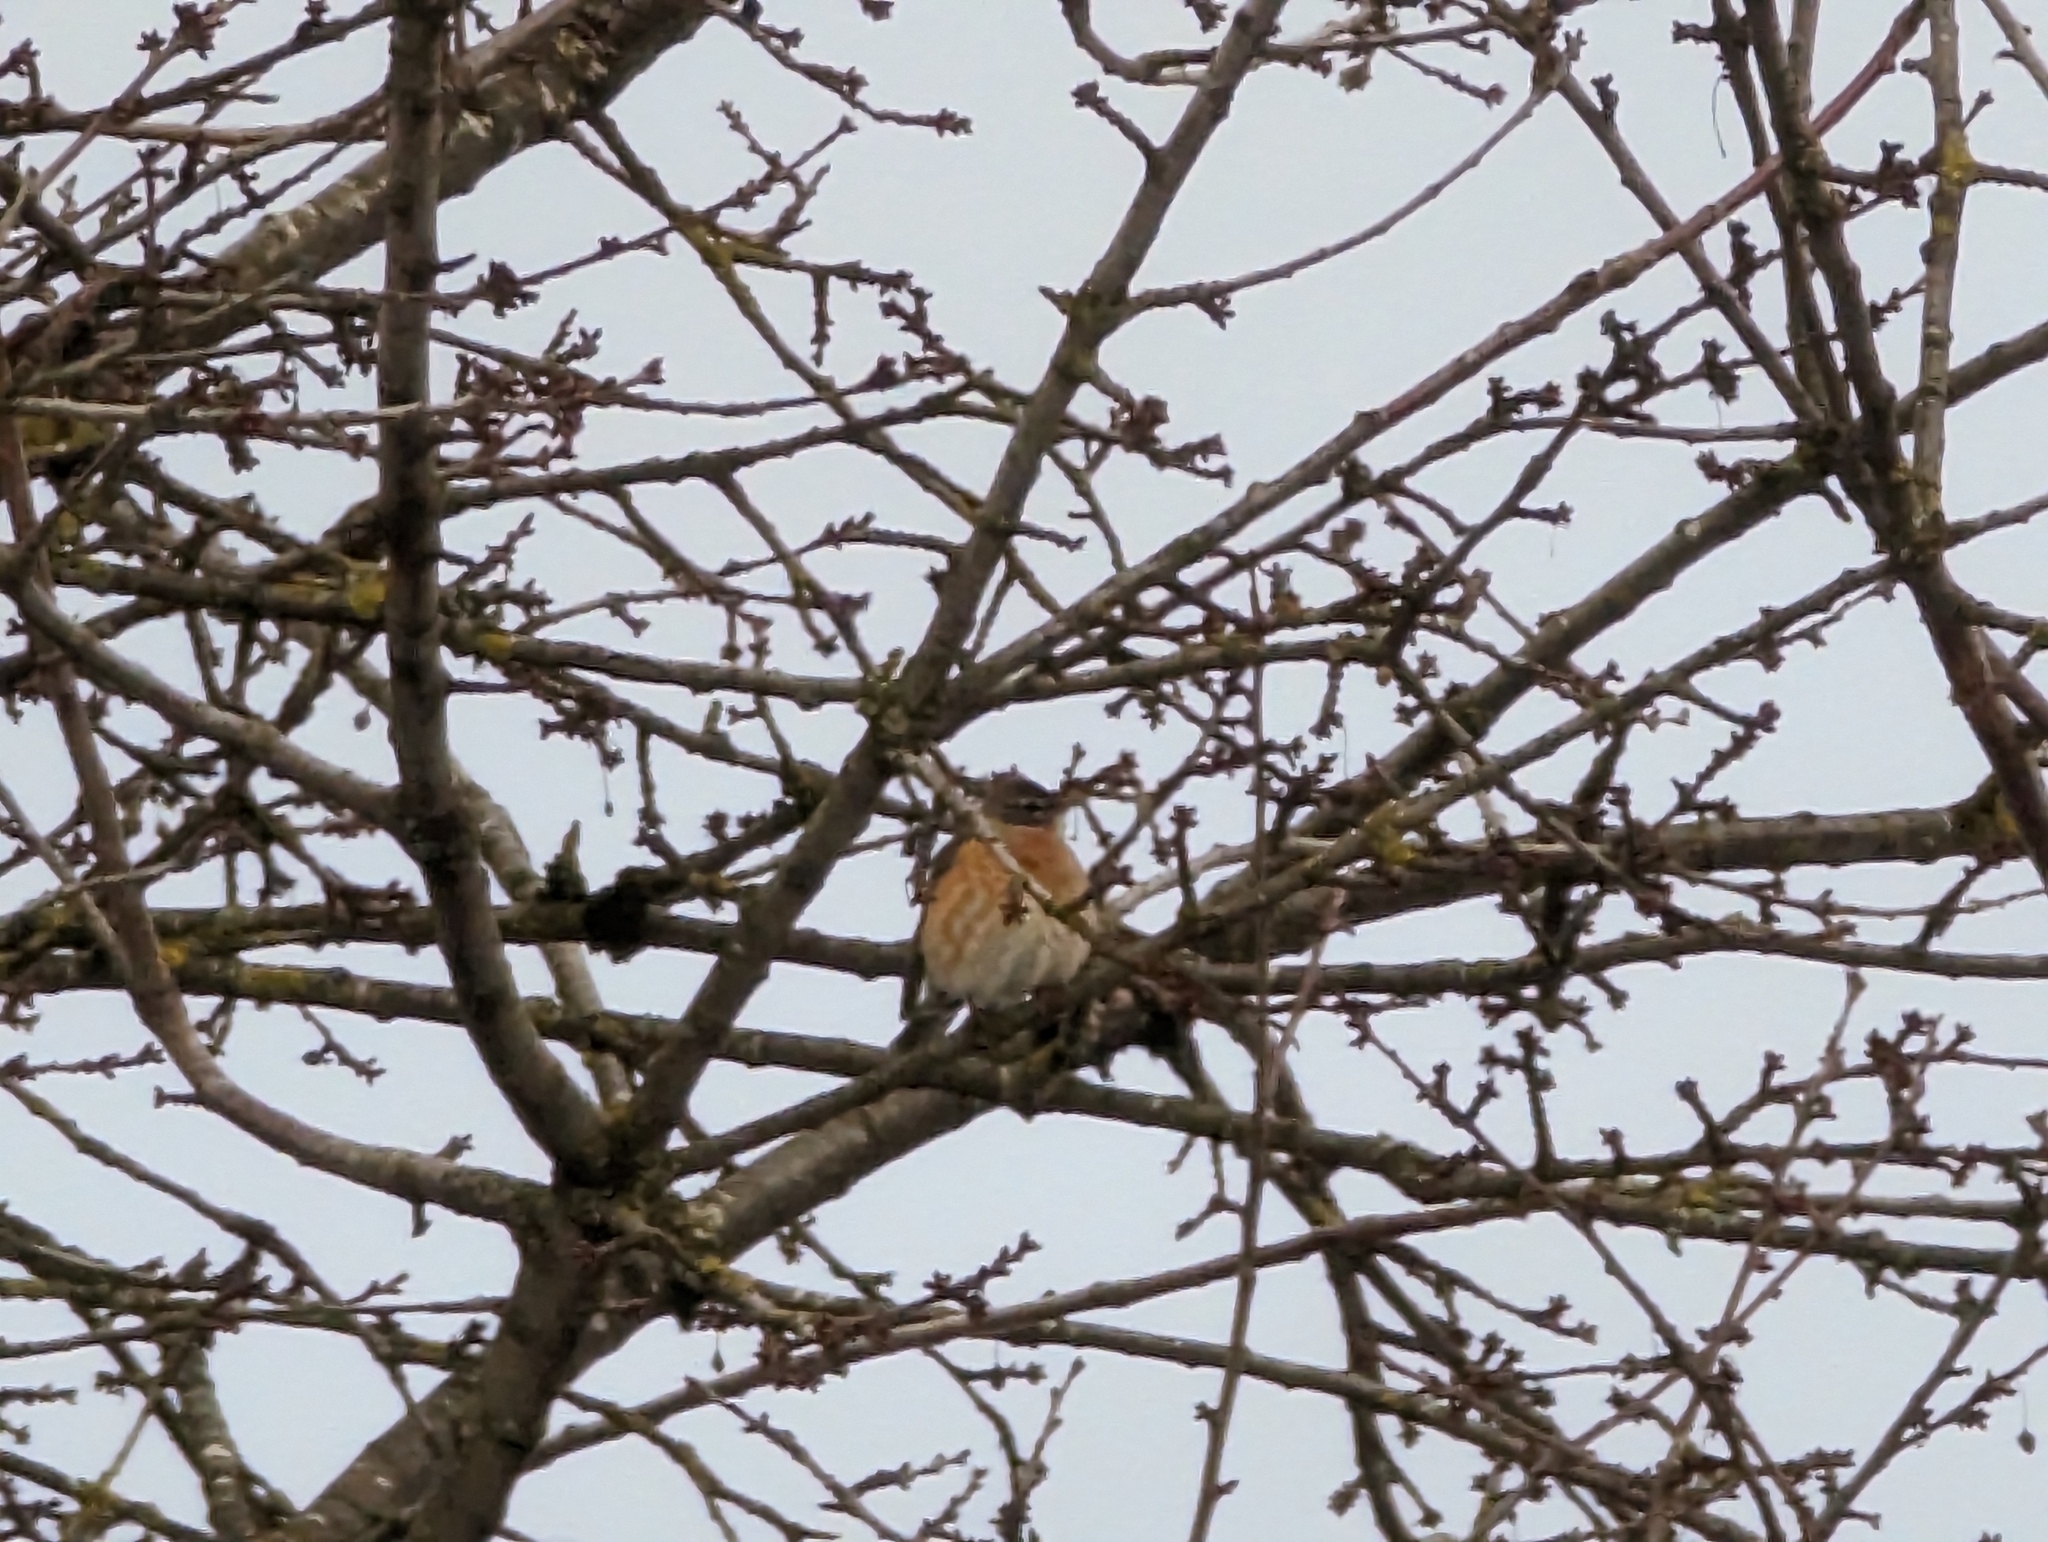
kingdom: Animalia
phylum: Chordata
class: Aves
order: Passeriformes
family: Turdidae
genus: Turdus
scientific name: Turdus migratorius
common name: American robin
